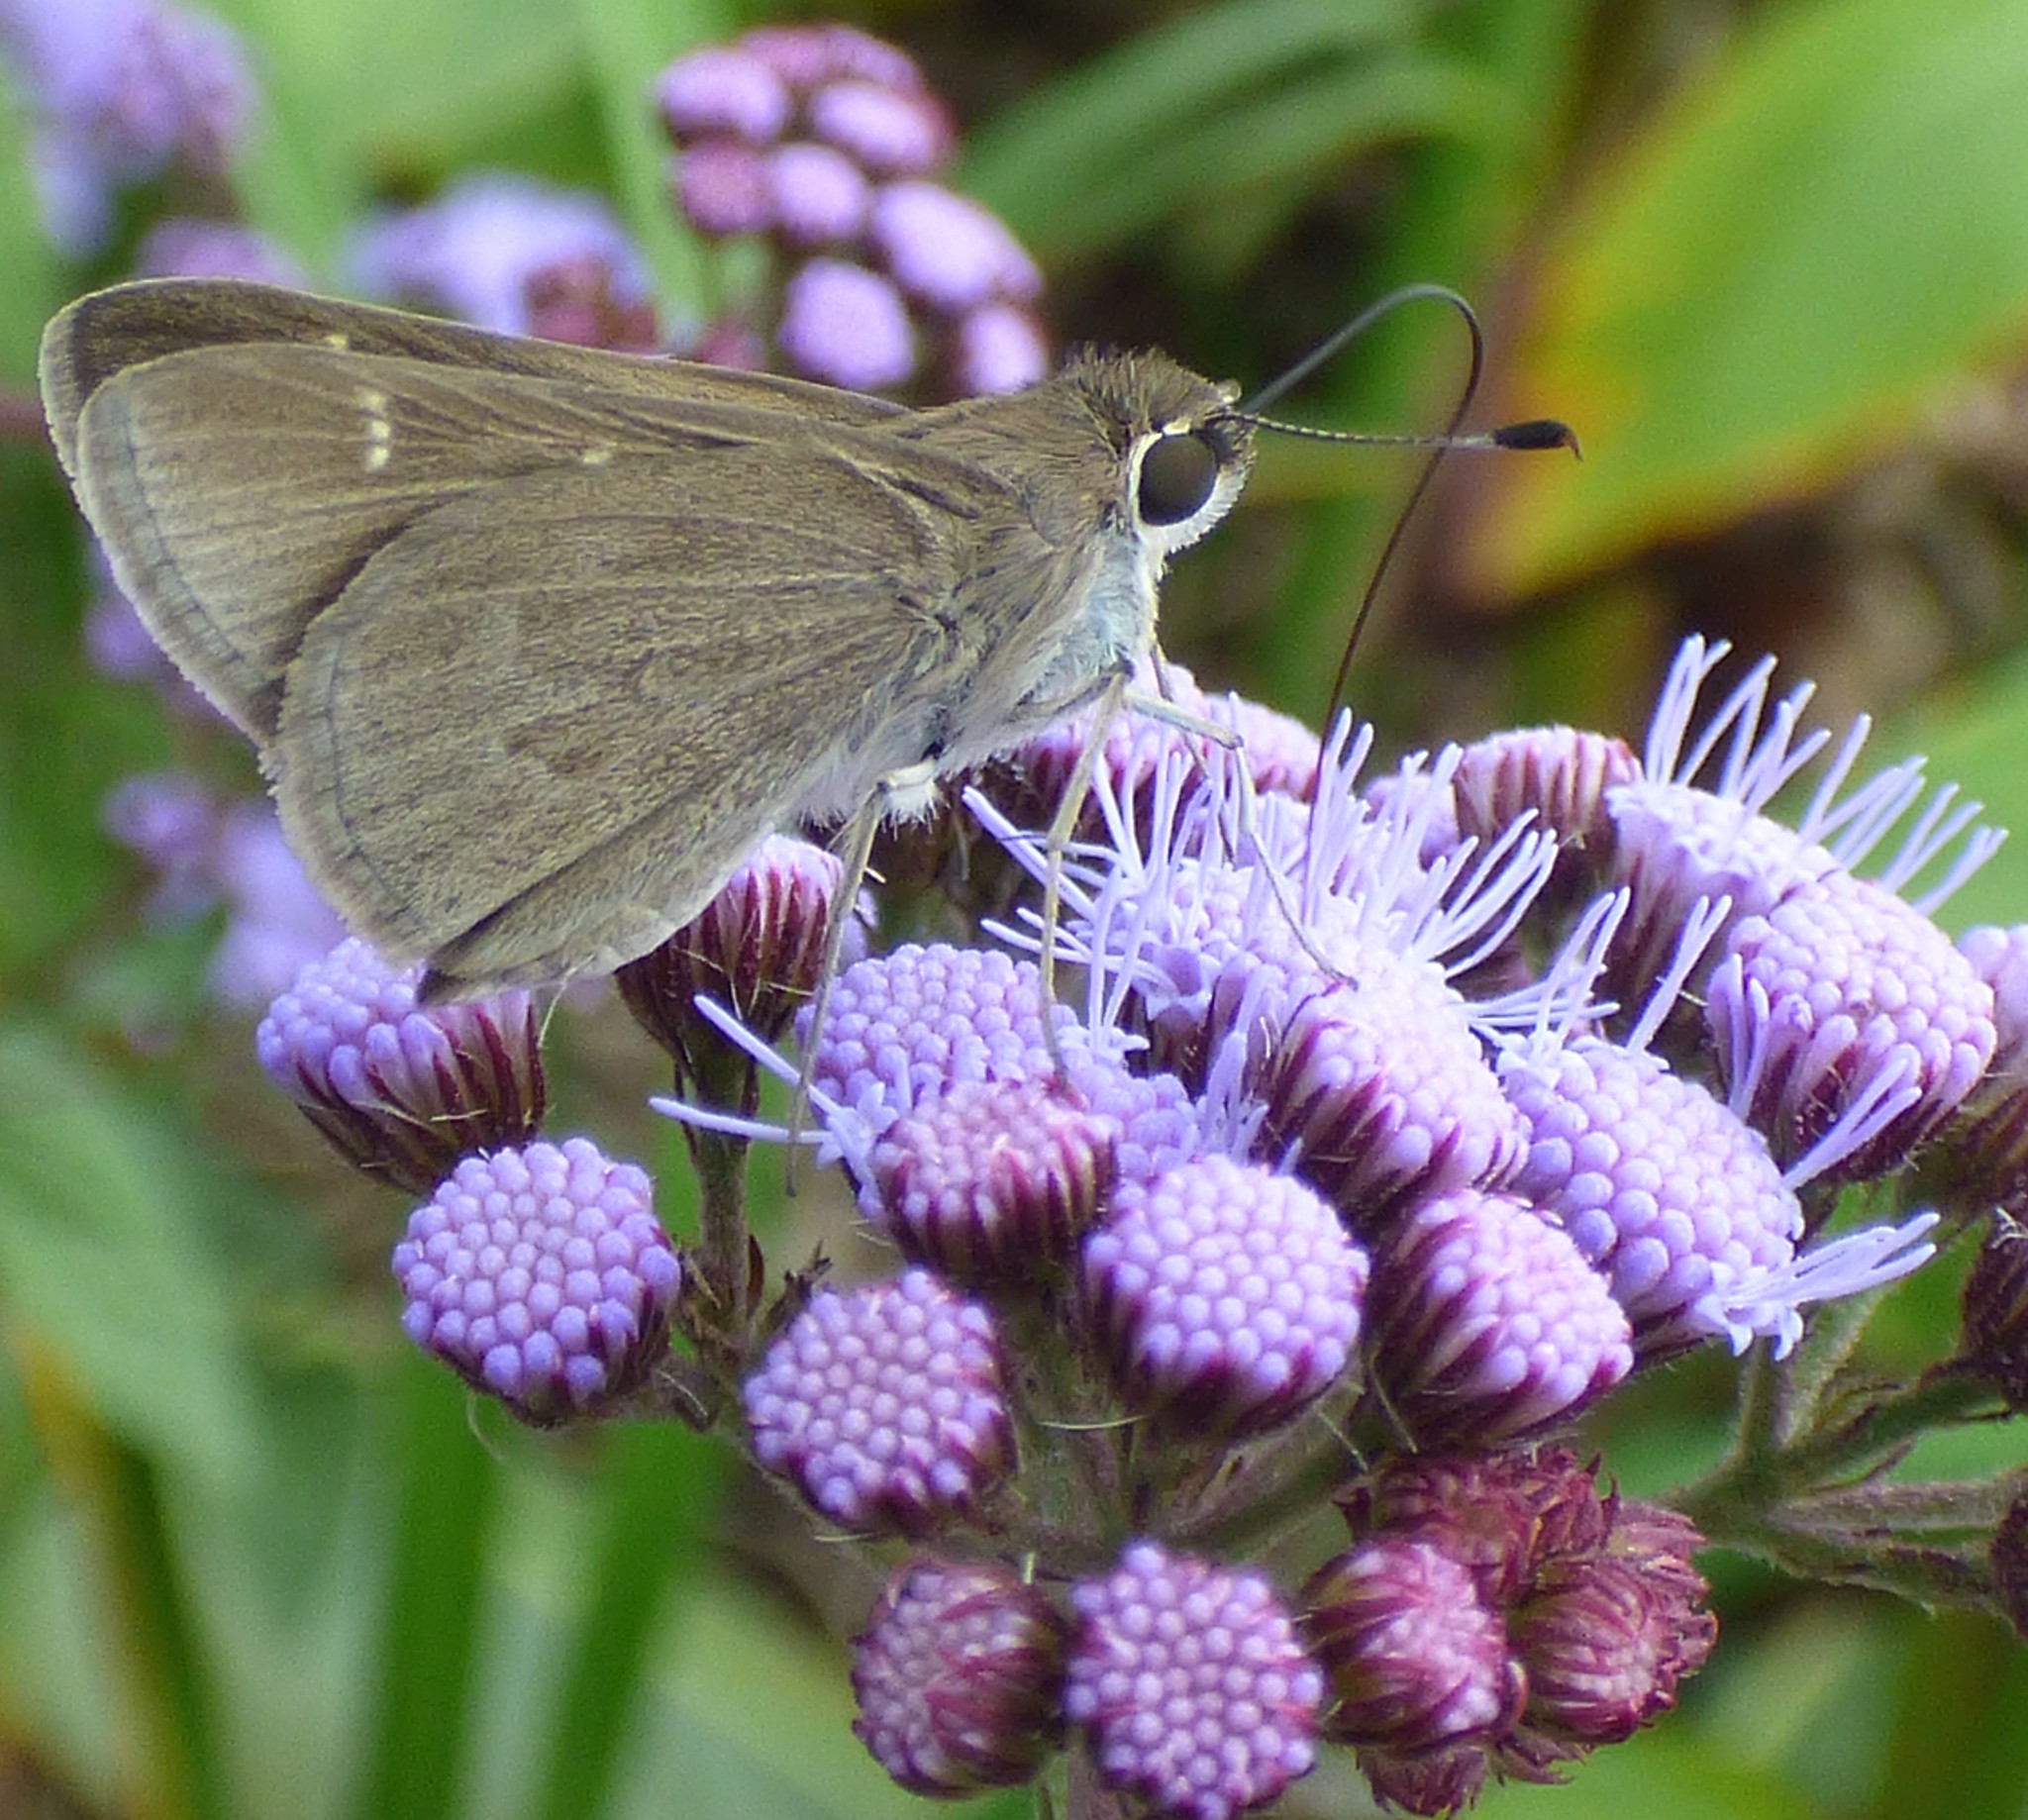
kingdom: Animalia
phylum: Arthropoda
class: Insecta
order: Lepidoptera
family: Hesperiidae
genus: Lerodea
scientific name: Lerodea eufala
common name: Eufala skipper
